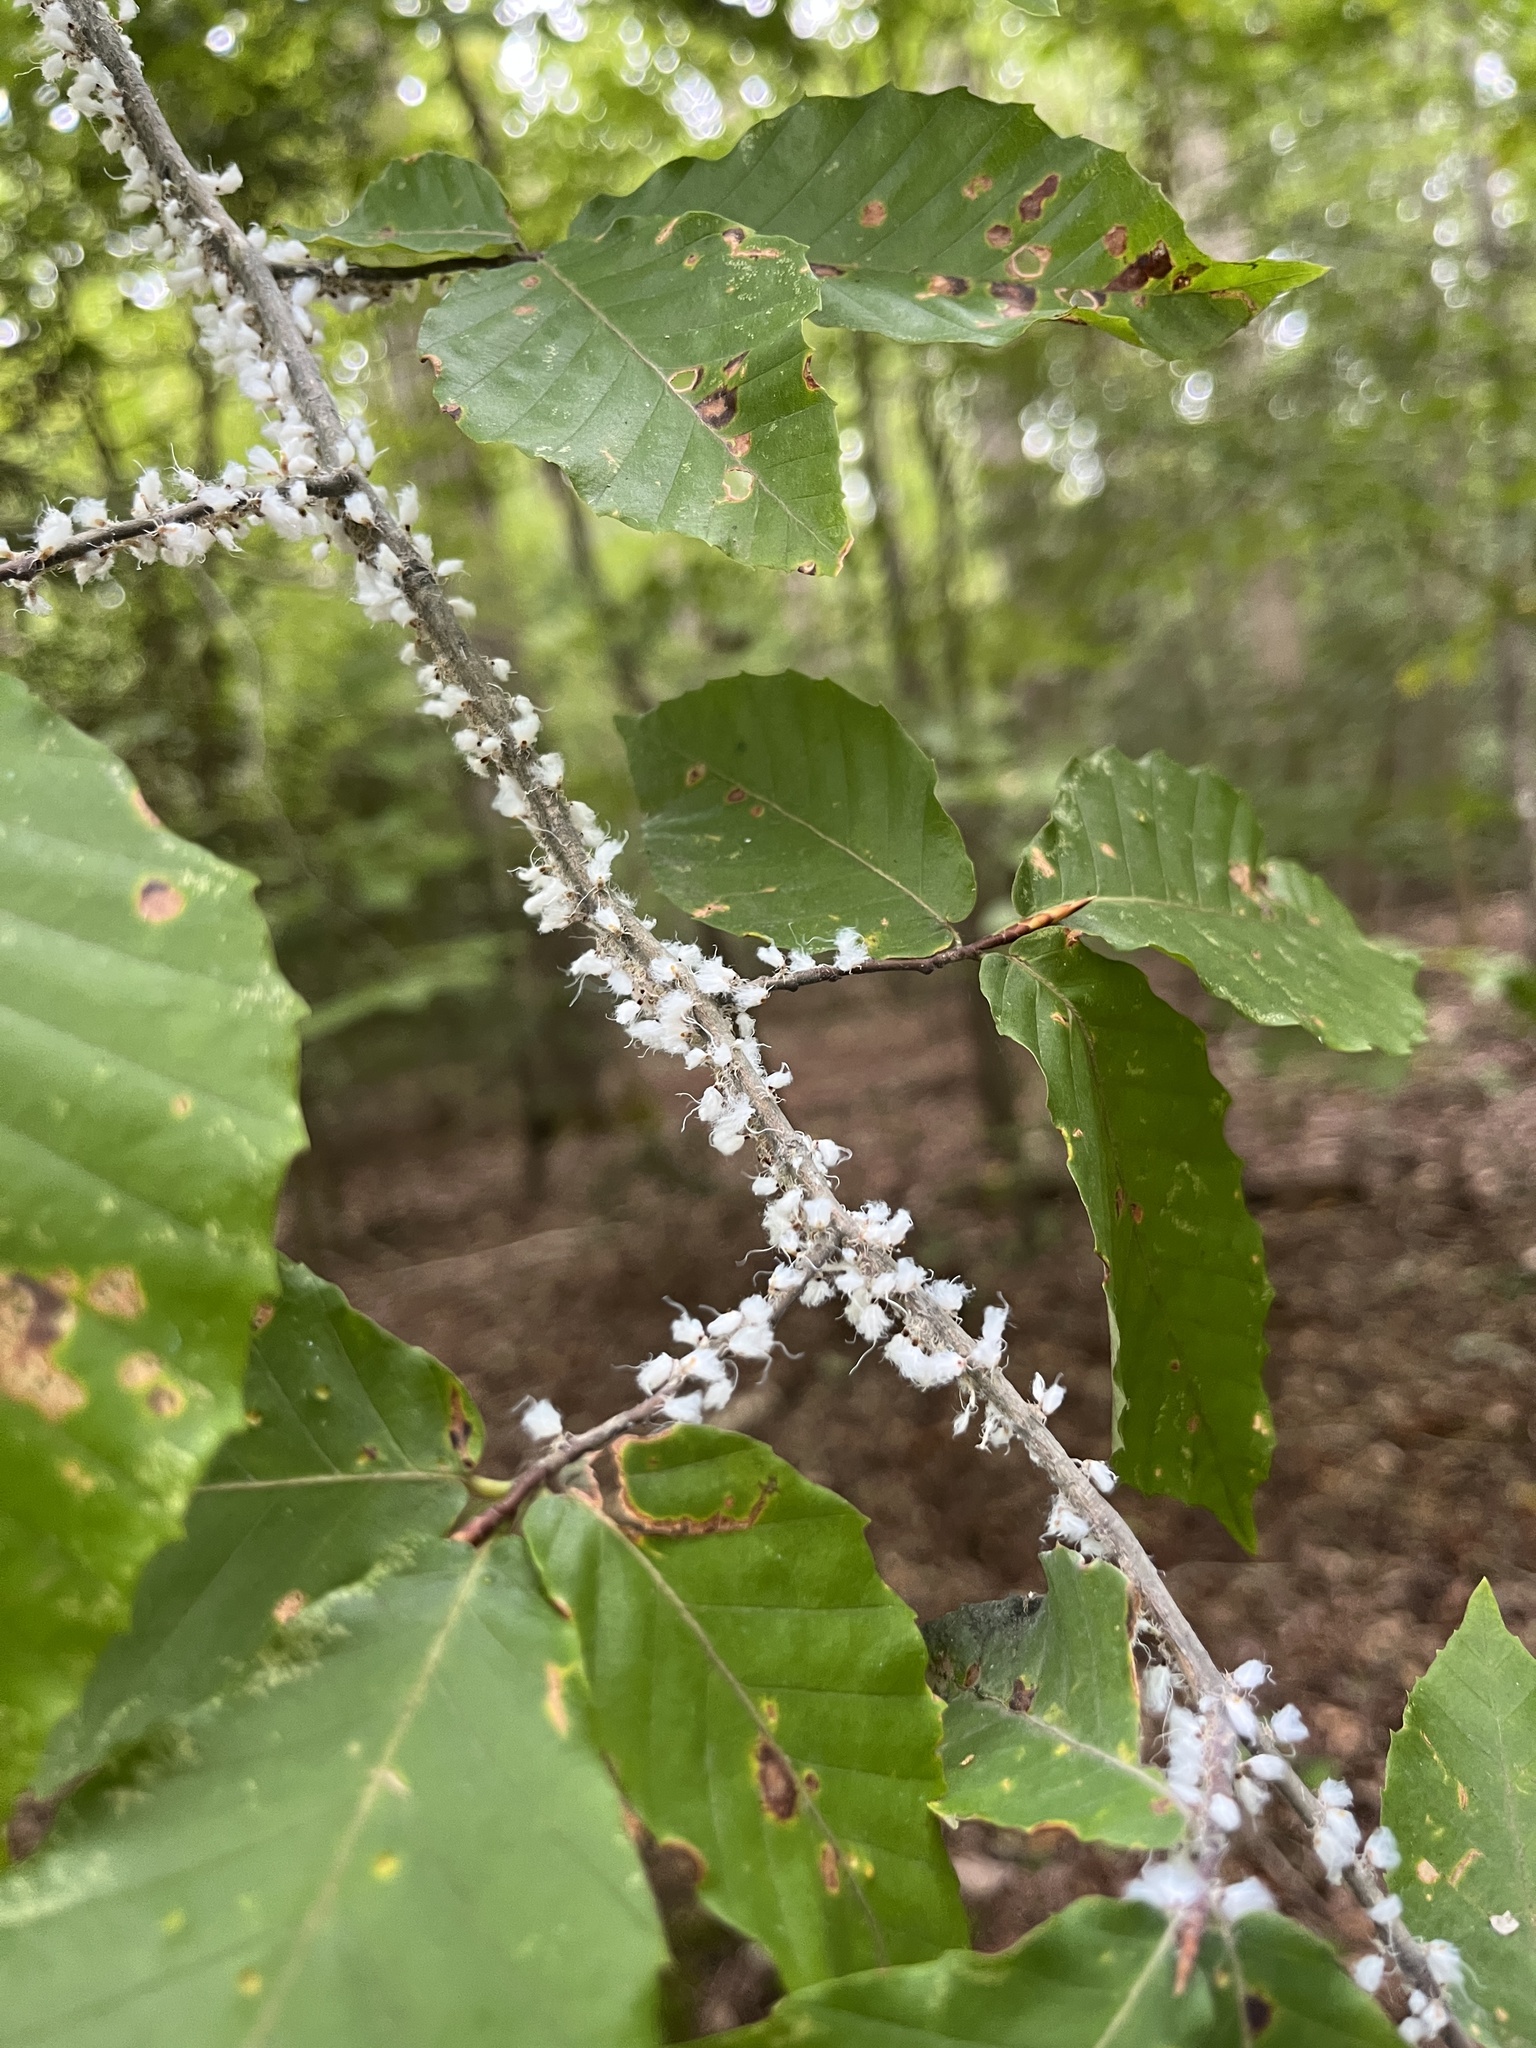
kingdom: Animalia
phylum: Arthropoda
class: Insecta
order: Hemiptera
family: Aphididae
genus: Grylloprociphilus
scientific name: Grylloprociphilus imbricator
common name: Beech blight aphid
